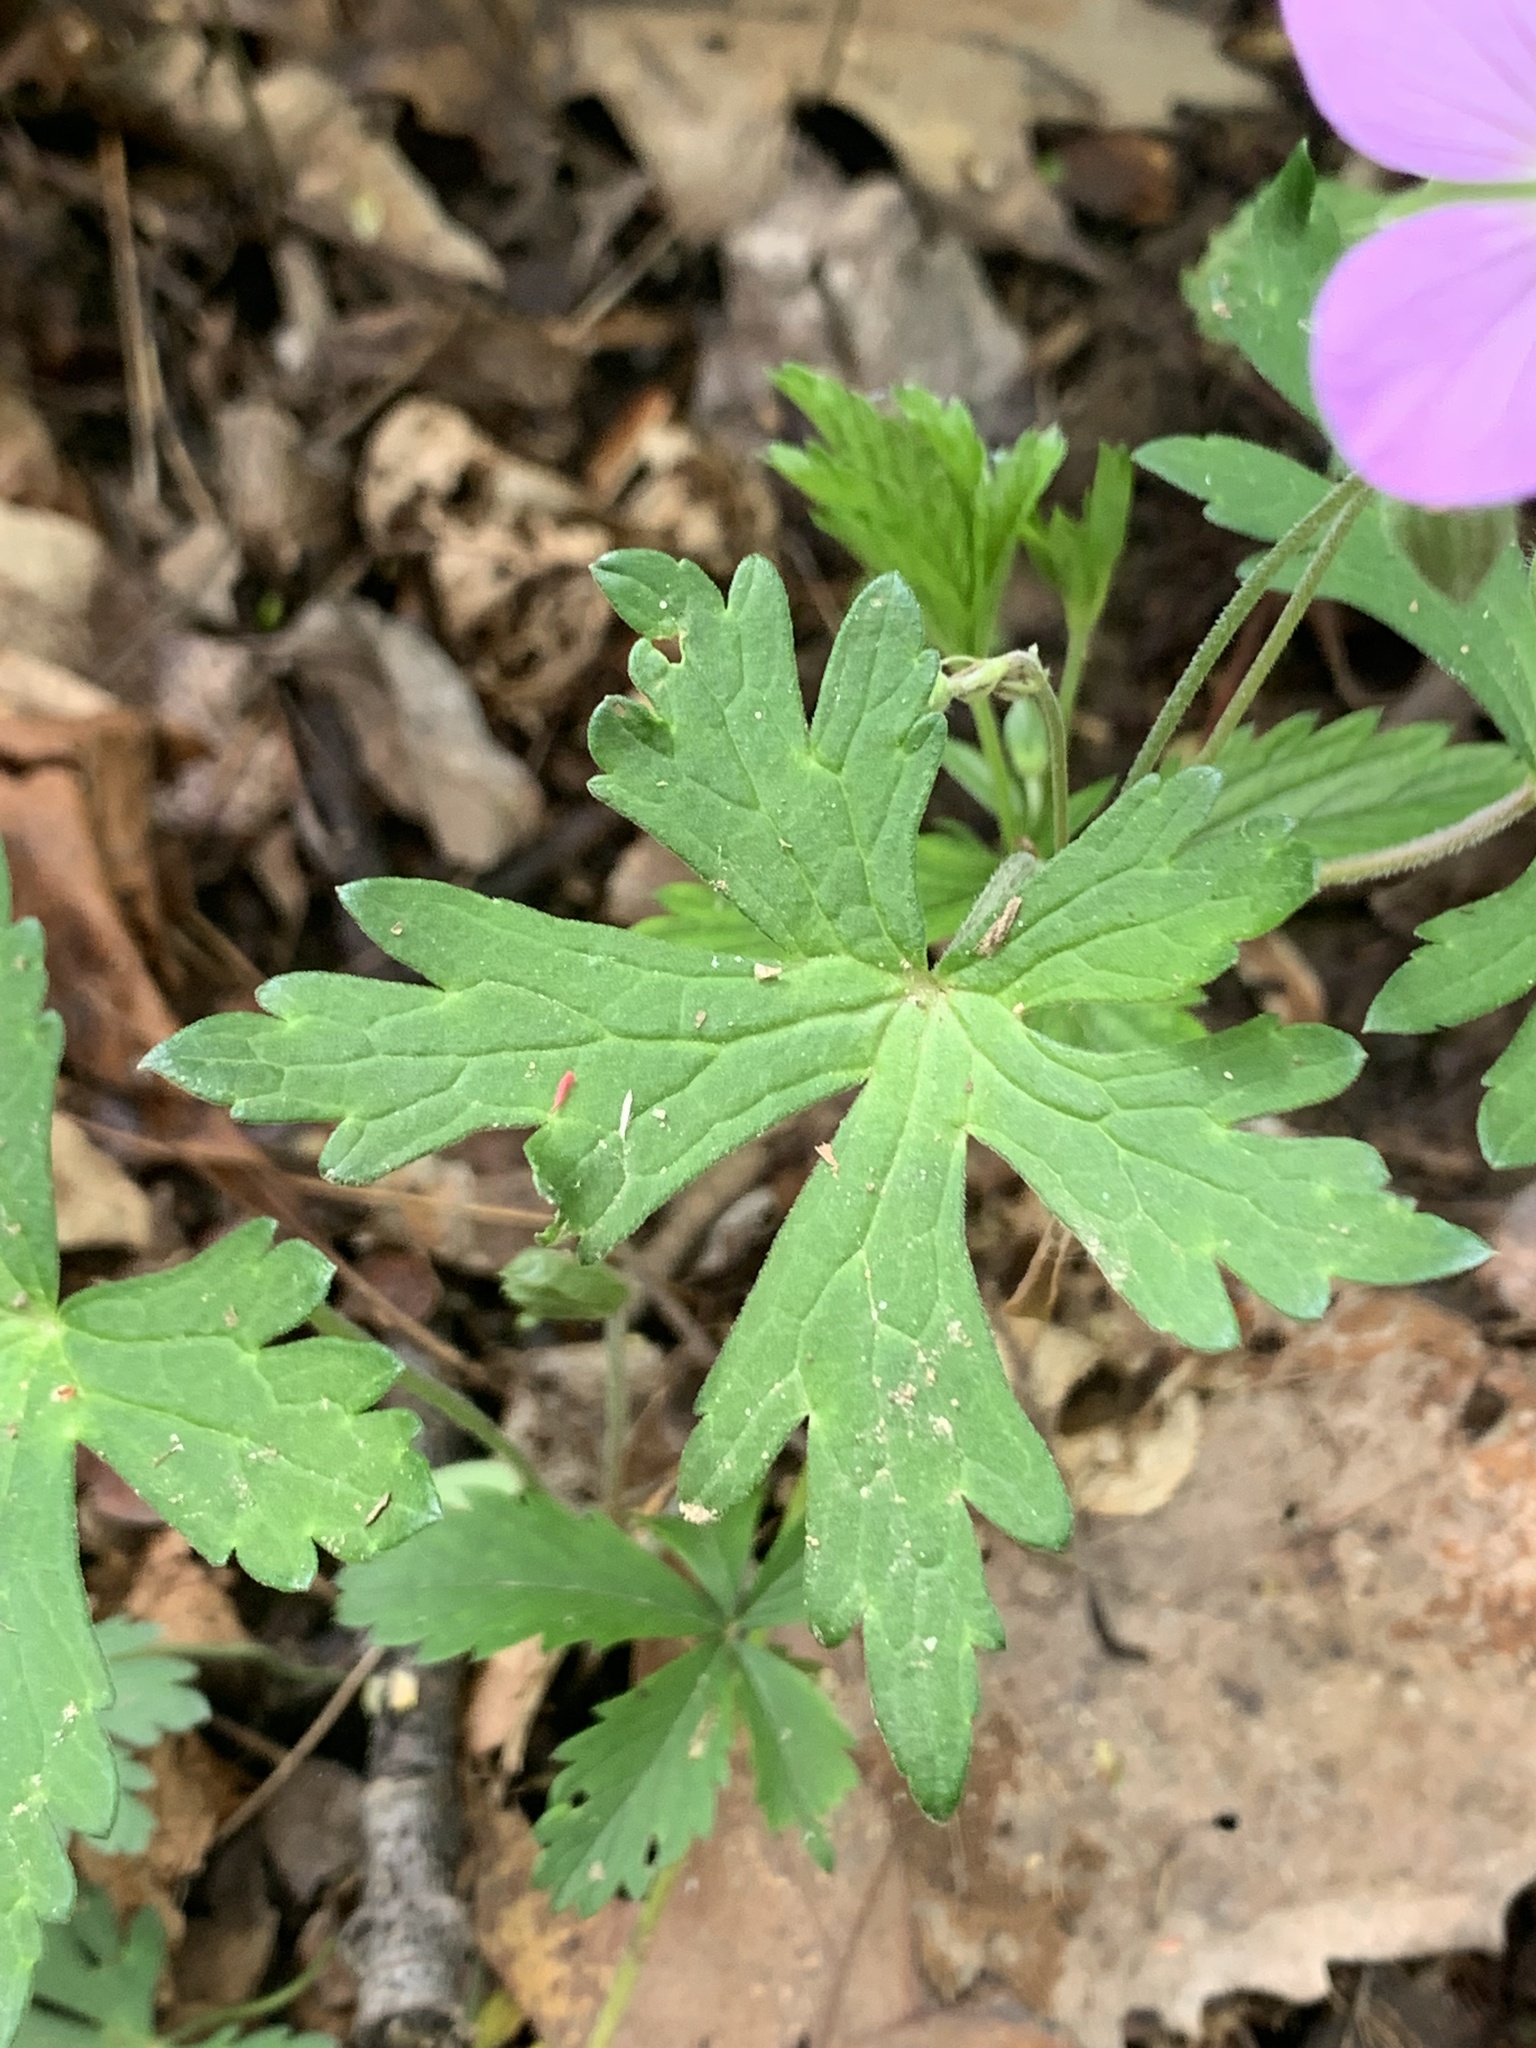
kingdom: Plantae
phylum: Tracheophyta
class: Magnoliopsida
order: Geraniales
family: Geraniaceae
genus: Geranium
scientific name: Geranium maculatum
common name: Spotted geranium
